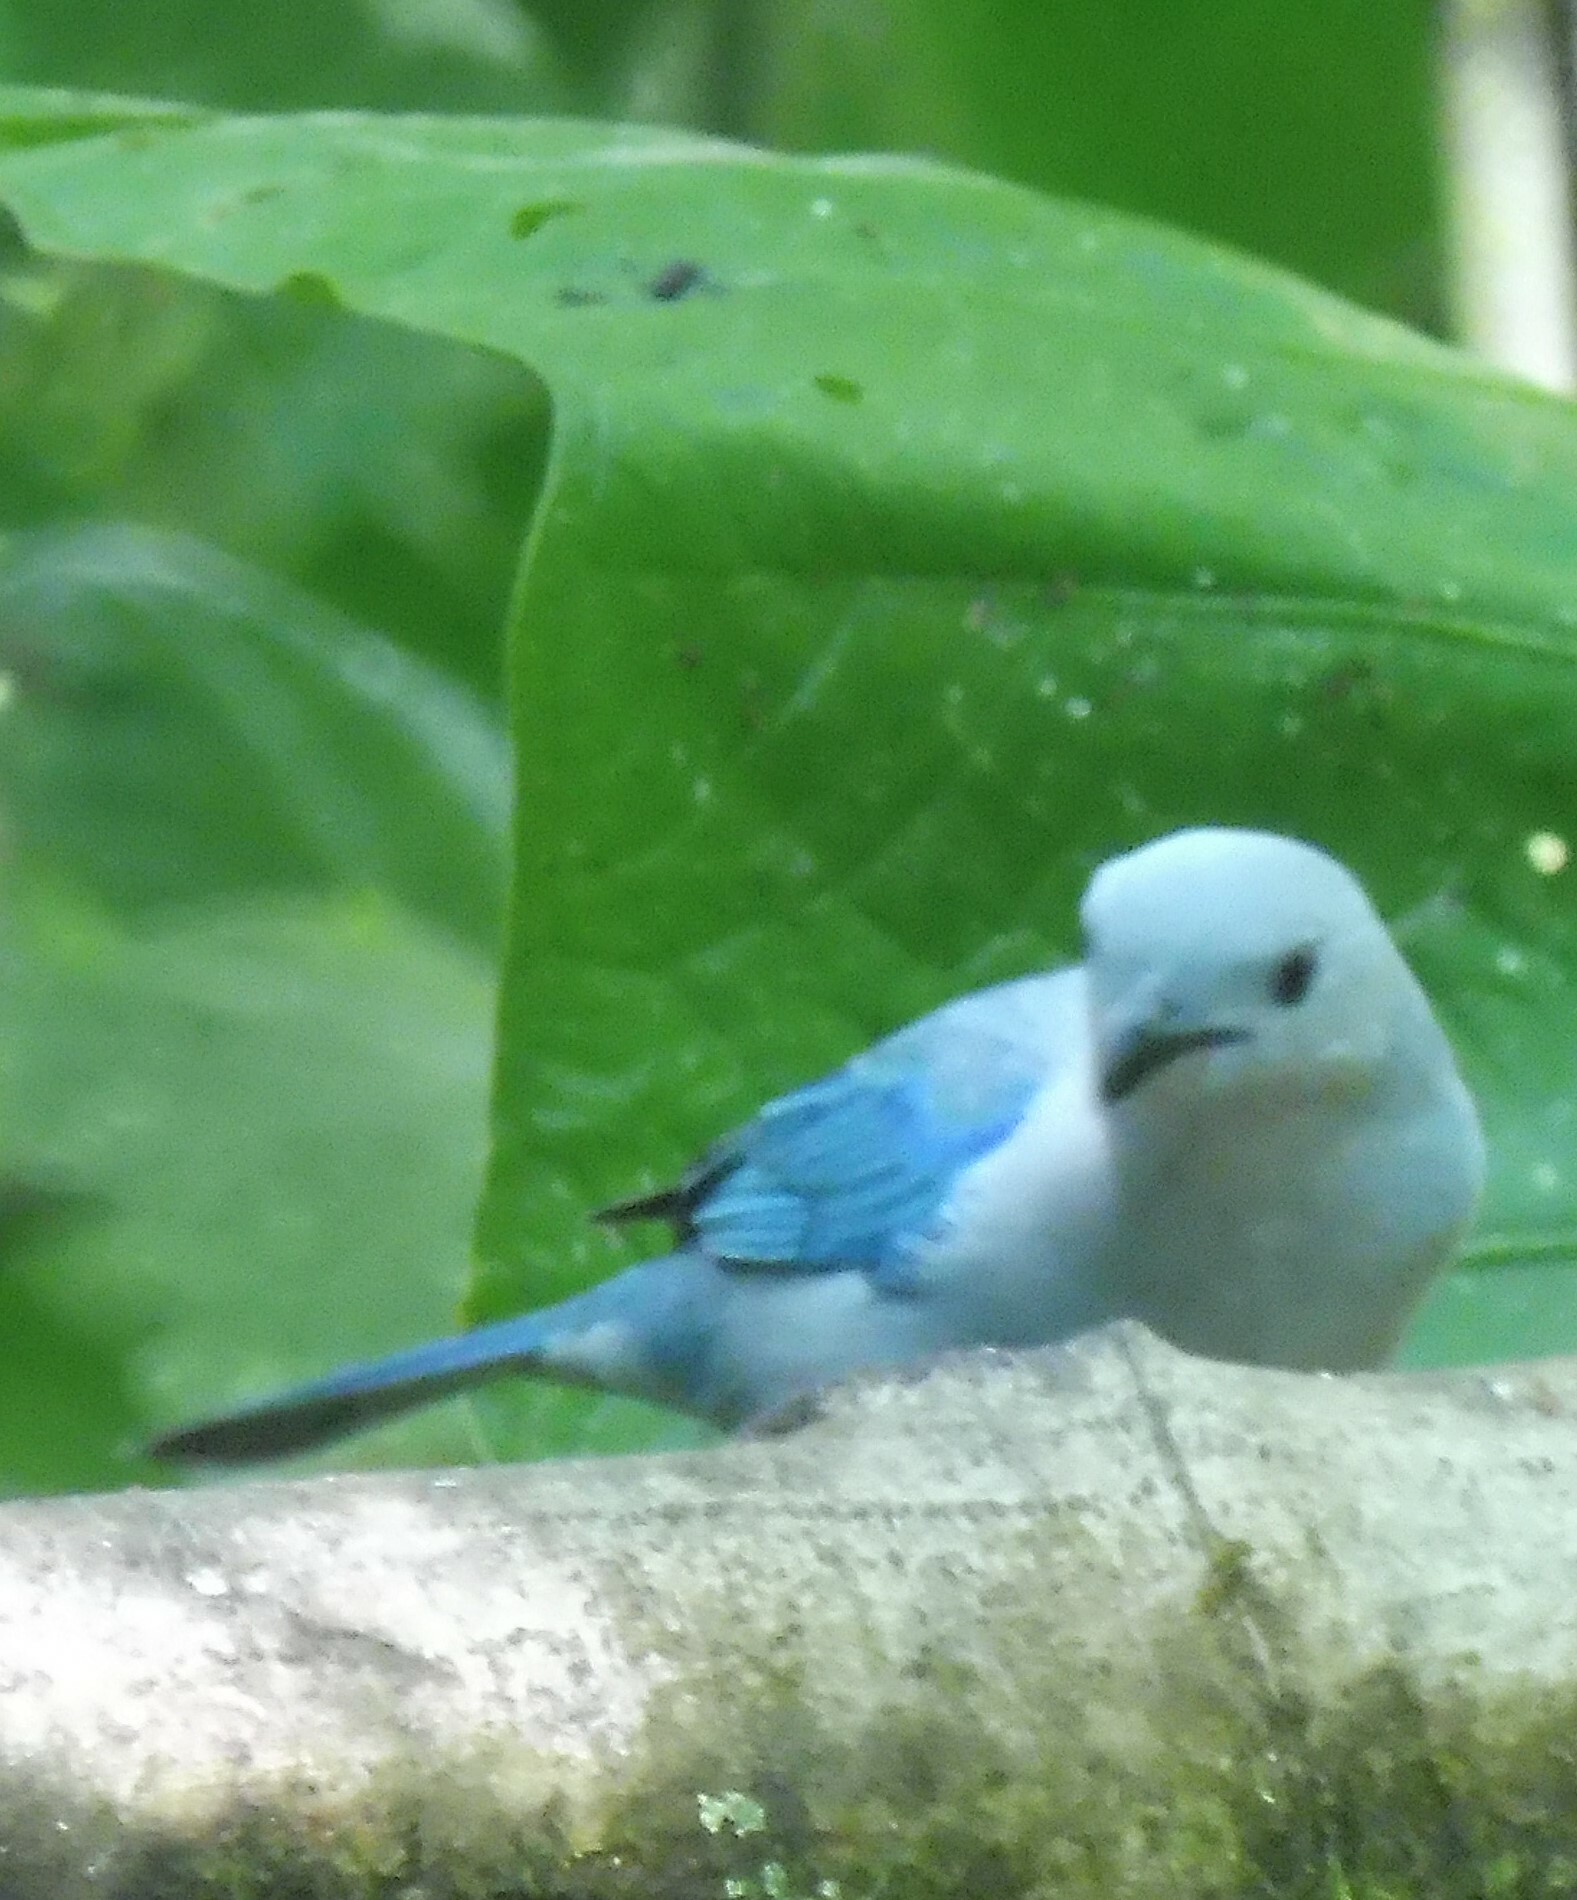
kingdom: Animalia
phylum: Chordata
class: Aves
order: Passeriformes
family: Thraupidae
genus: Thraupis
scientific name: Thraupis episcopus
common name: Blue-grey tanager
